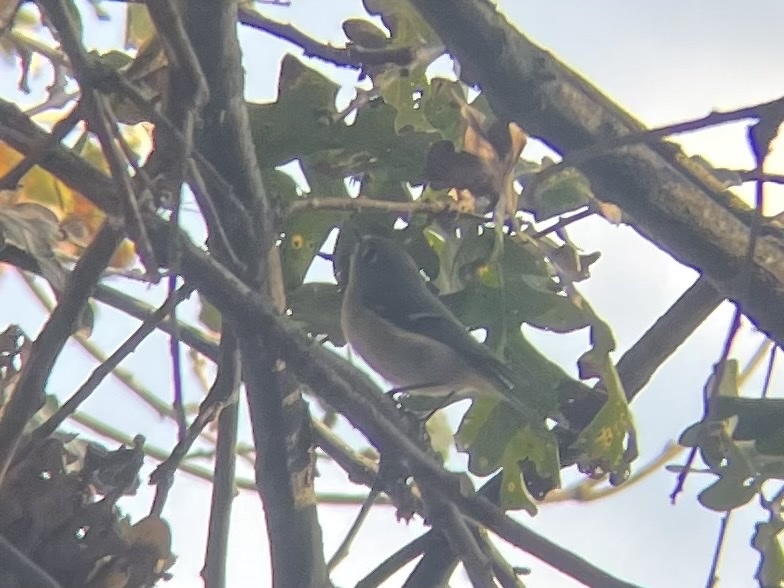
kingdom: Animalia
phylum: Chordata
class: Aves
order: Passeriformes
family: Regulidae
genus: Regulus
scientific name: Regulus calendula
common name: Ruby-crowned kinglet
